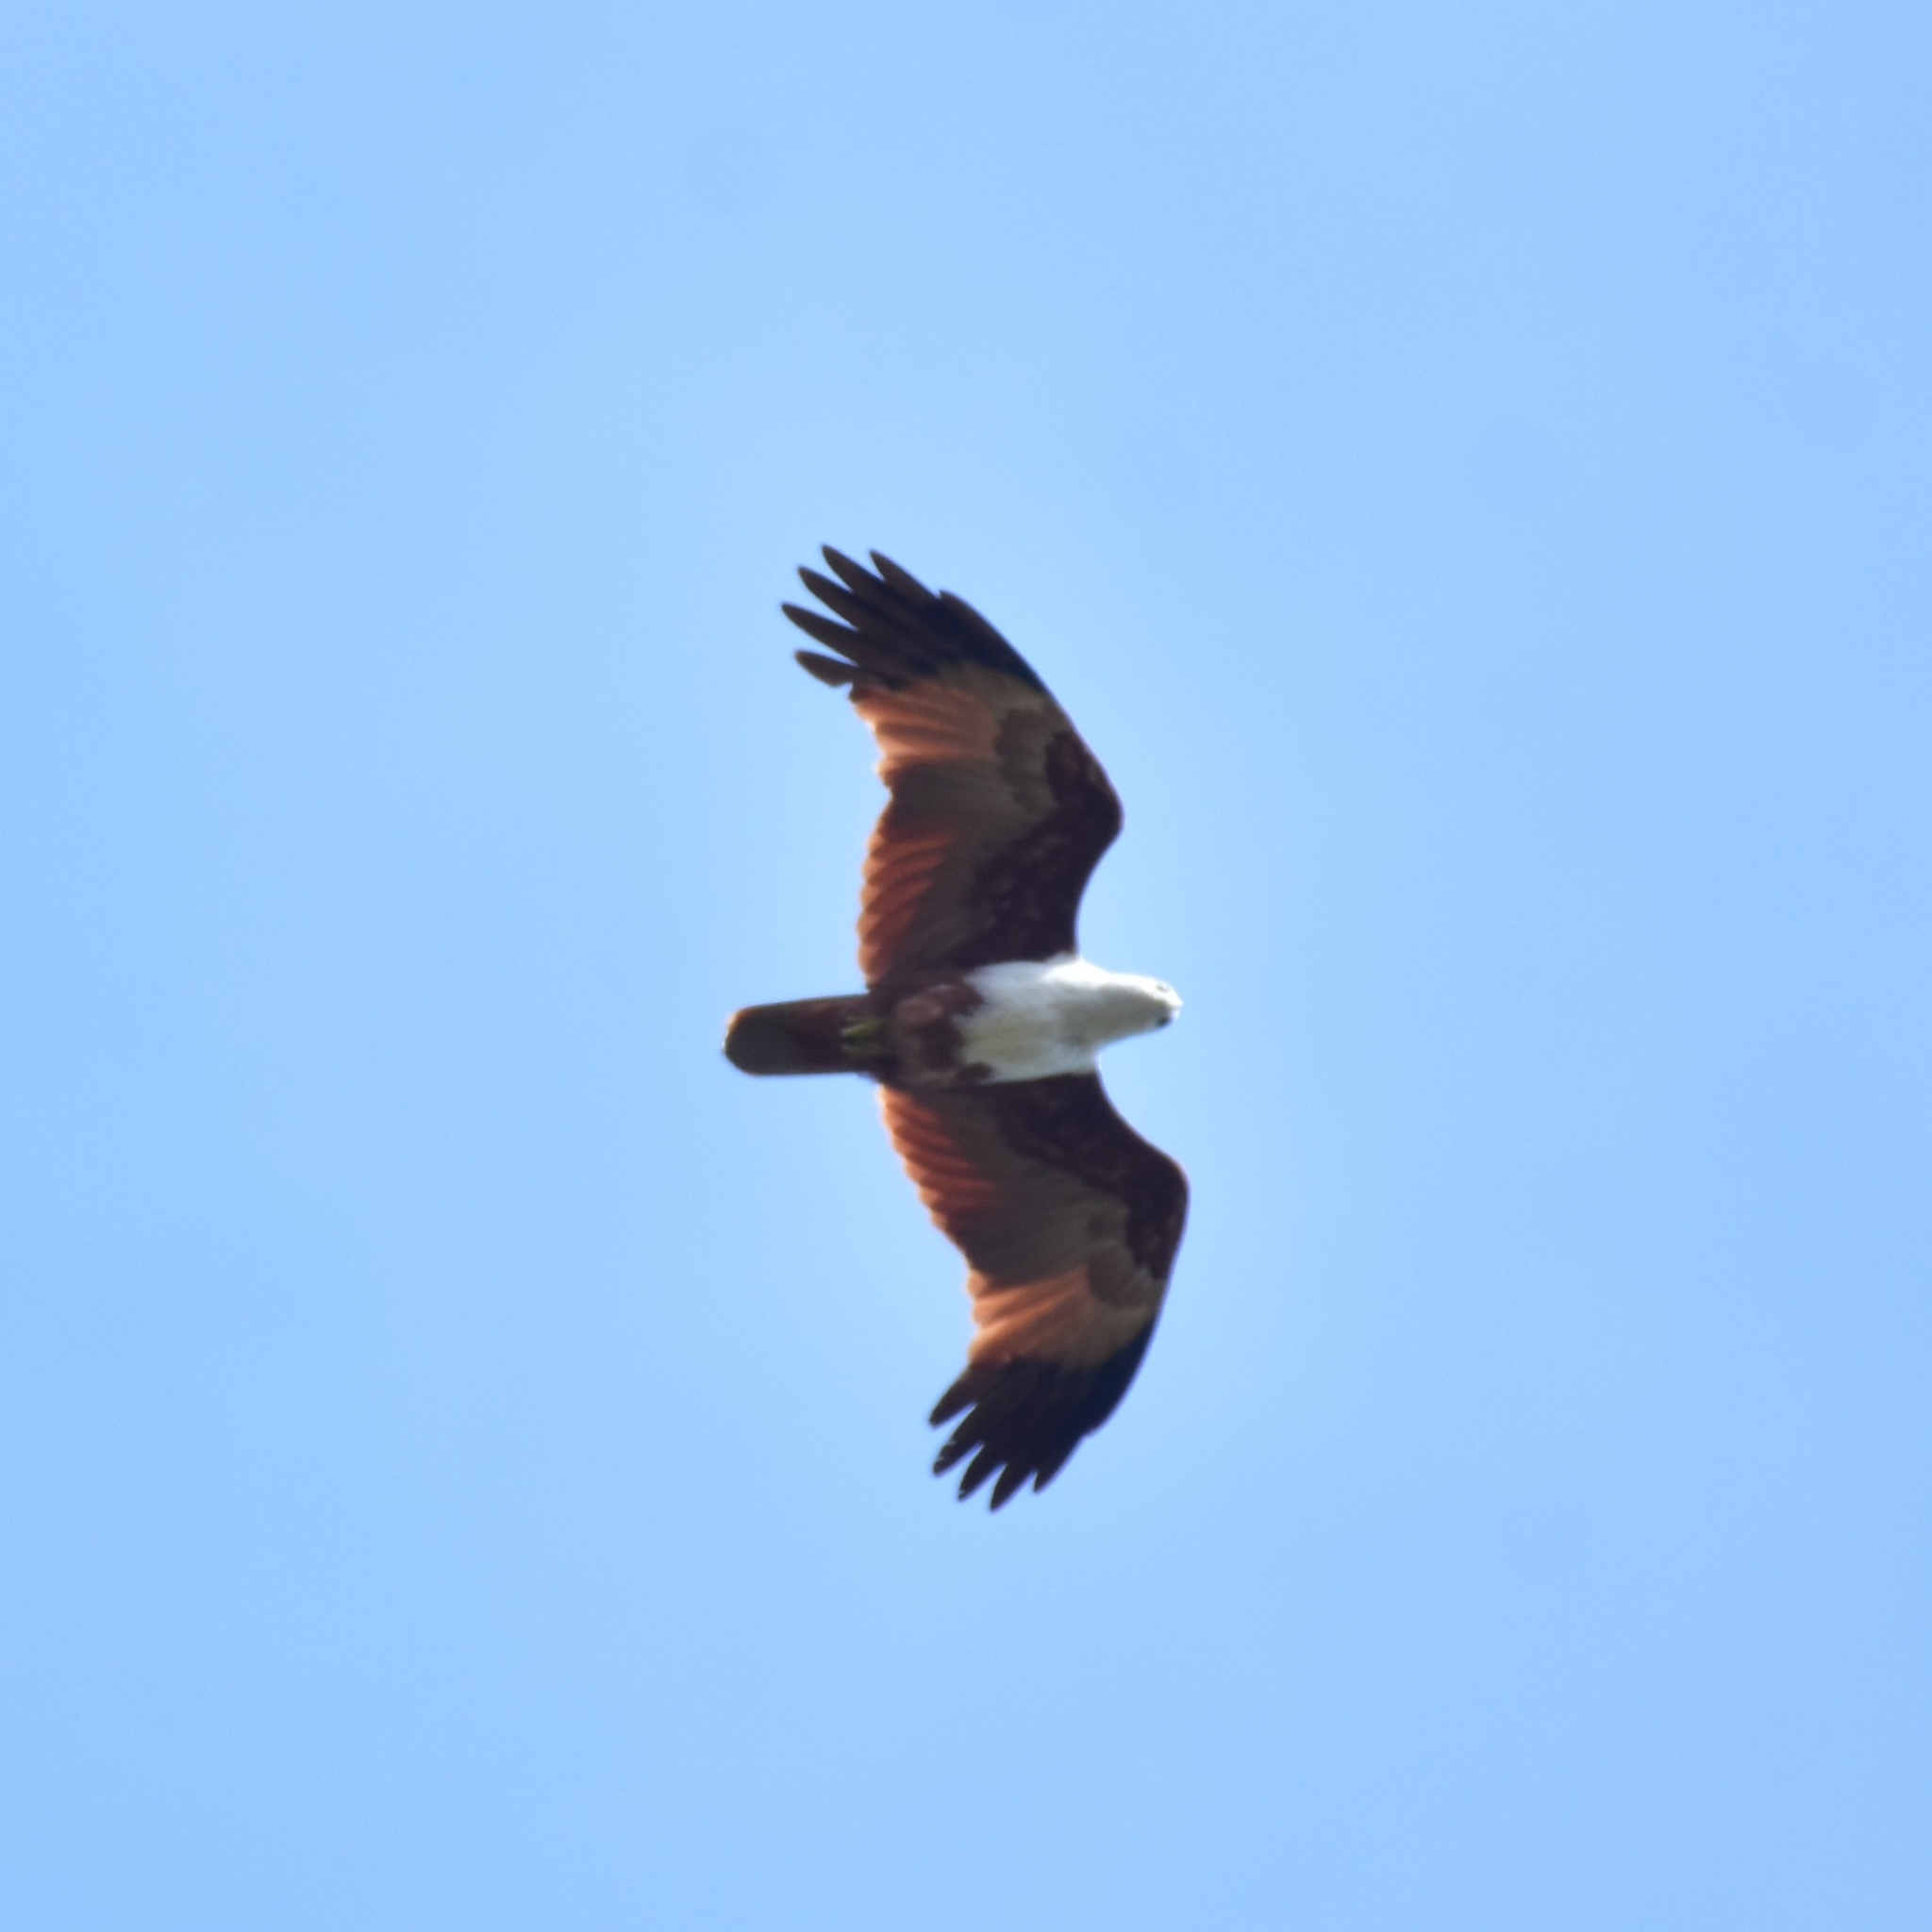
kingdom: Animalia
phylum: Chordata
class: Aves
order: Accipitriformes
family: Accipitridae
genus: Haliastur
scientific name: Haliastur indus
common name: Brahminy kite
